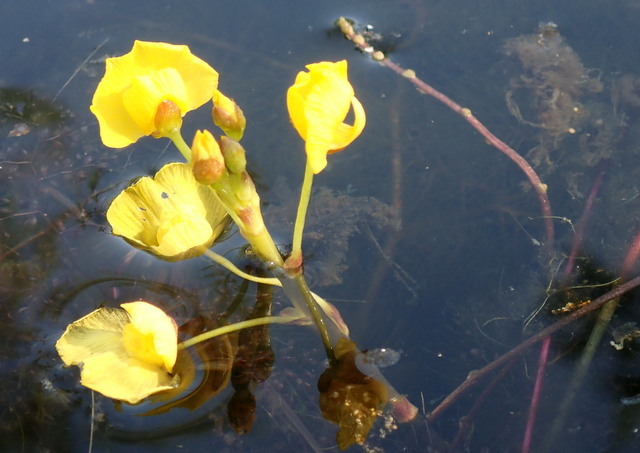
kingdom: Plantae
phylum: Tracheophyta
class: Magnoliopsida
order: Lamiales
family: Lentibulariaceae
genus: Utricularia
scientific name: Utricularia foliosa
